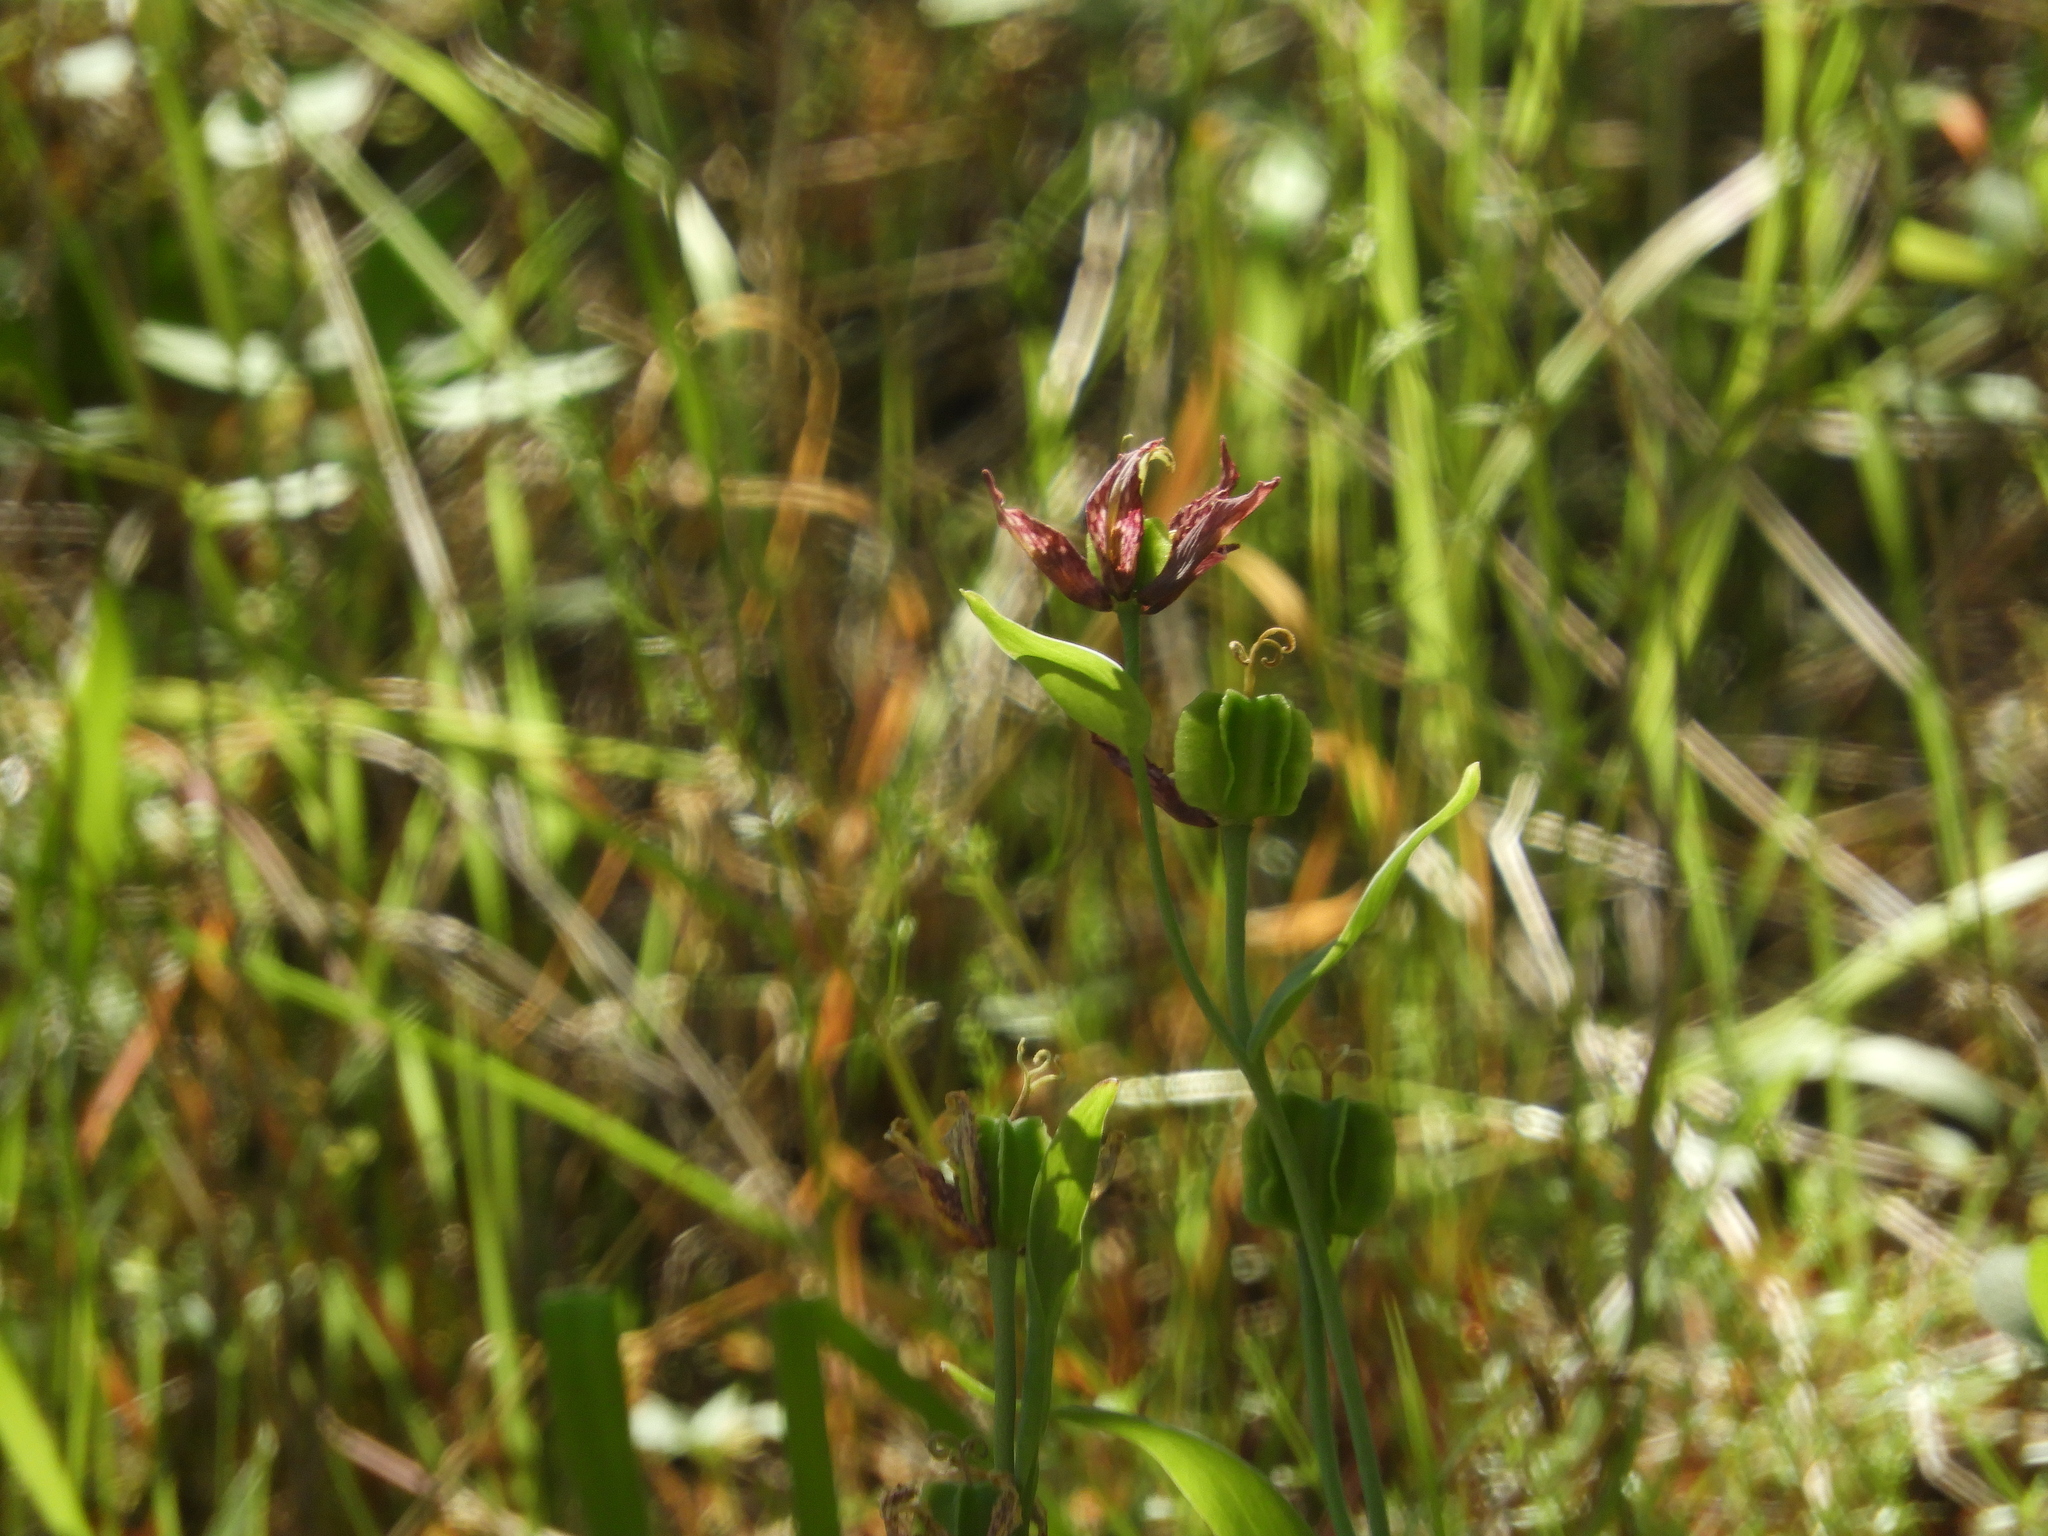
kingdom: Plantae
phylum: Tracheophyta
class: Liliopsida
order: Liliales
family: Liliaceae
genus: Fritillaria
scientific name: Fritillaria affinis
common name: Ojai fritillary
